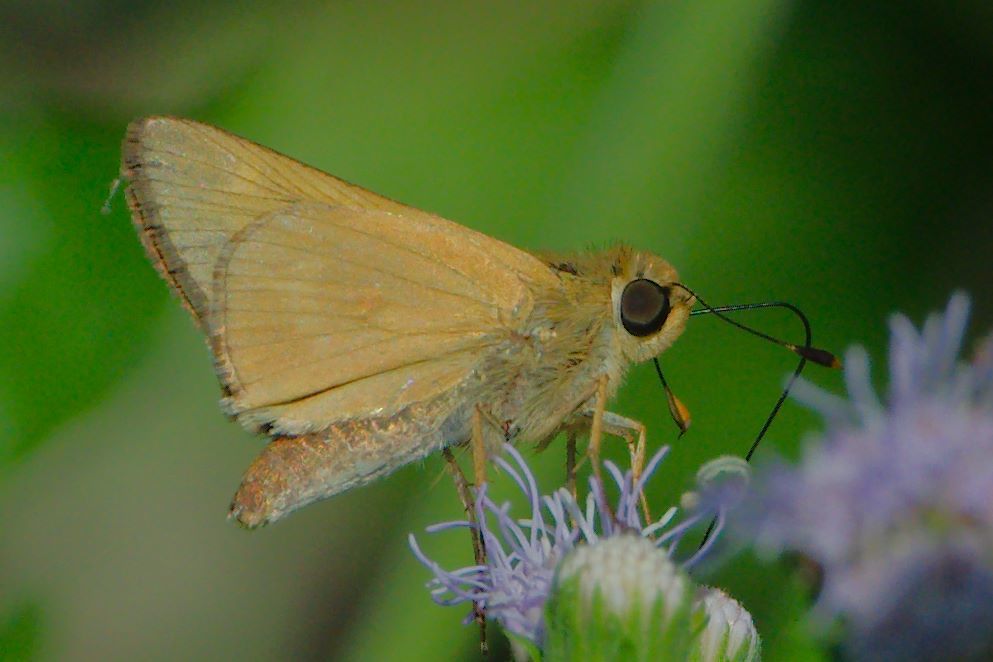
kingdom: Animalia
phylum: Arthropoda
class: Insecta
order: Lepidoptera
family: Hesperiidae
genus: Mellana
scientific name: Mellana eulogius
